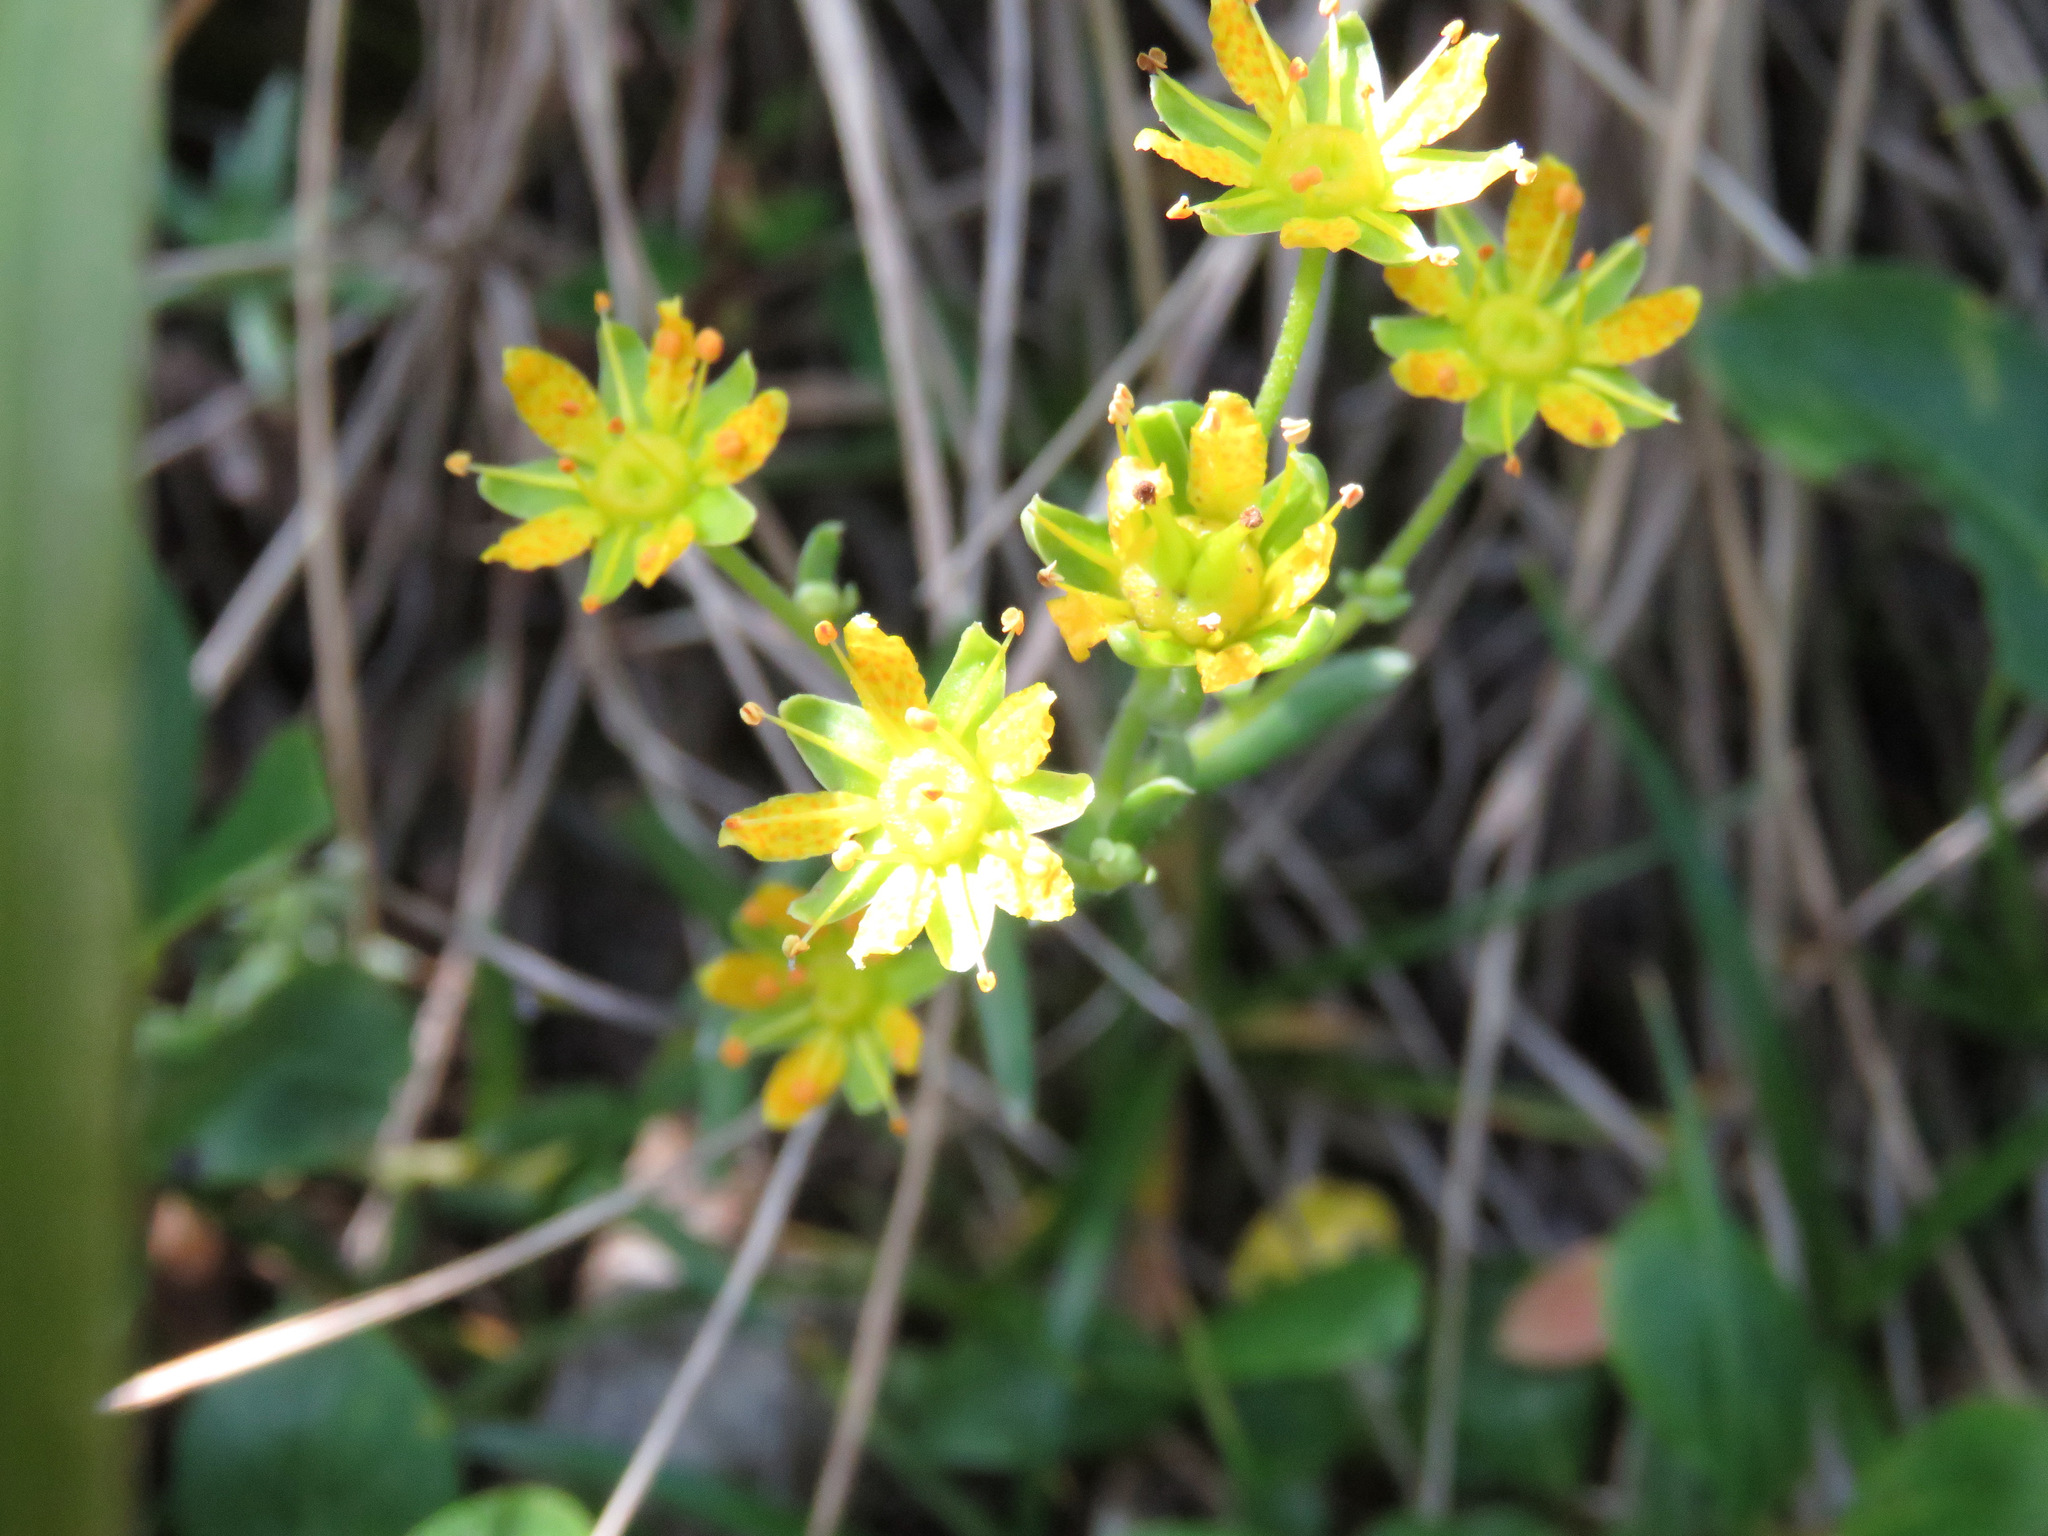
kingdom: Plantae
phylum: Tracheophyta
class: Magnoliopsida
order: Saxifragales
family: Saxifragaceae
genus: Saxifraga
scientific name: Saxifraga aizoides
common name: Yellow mountain saxifrage
